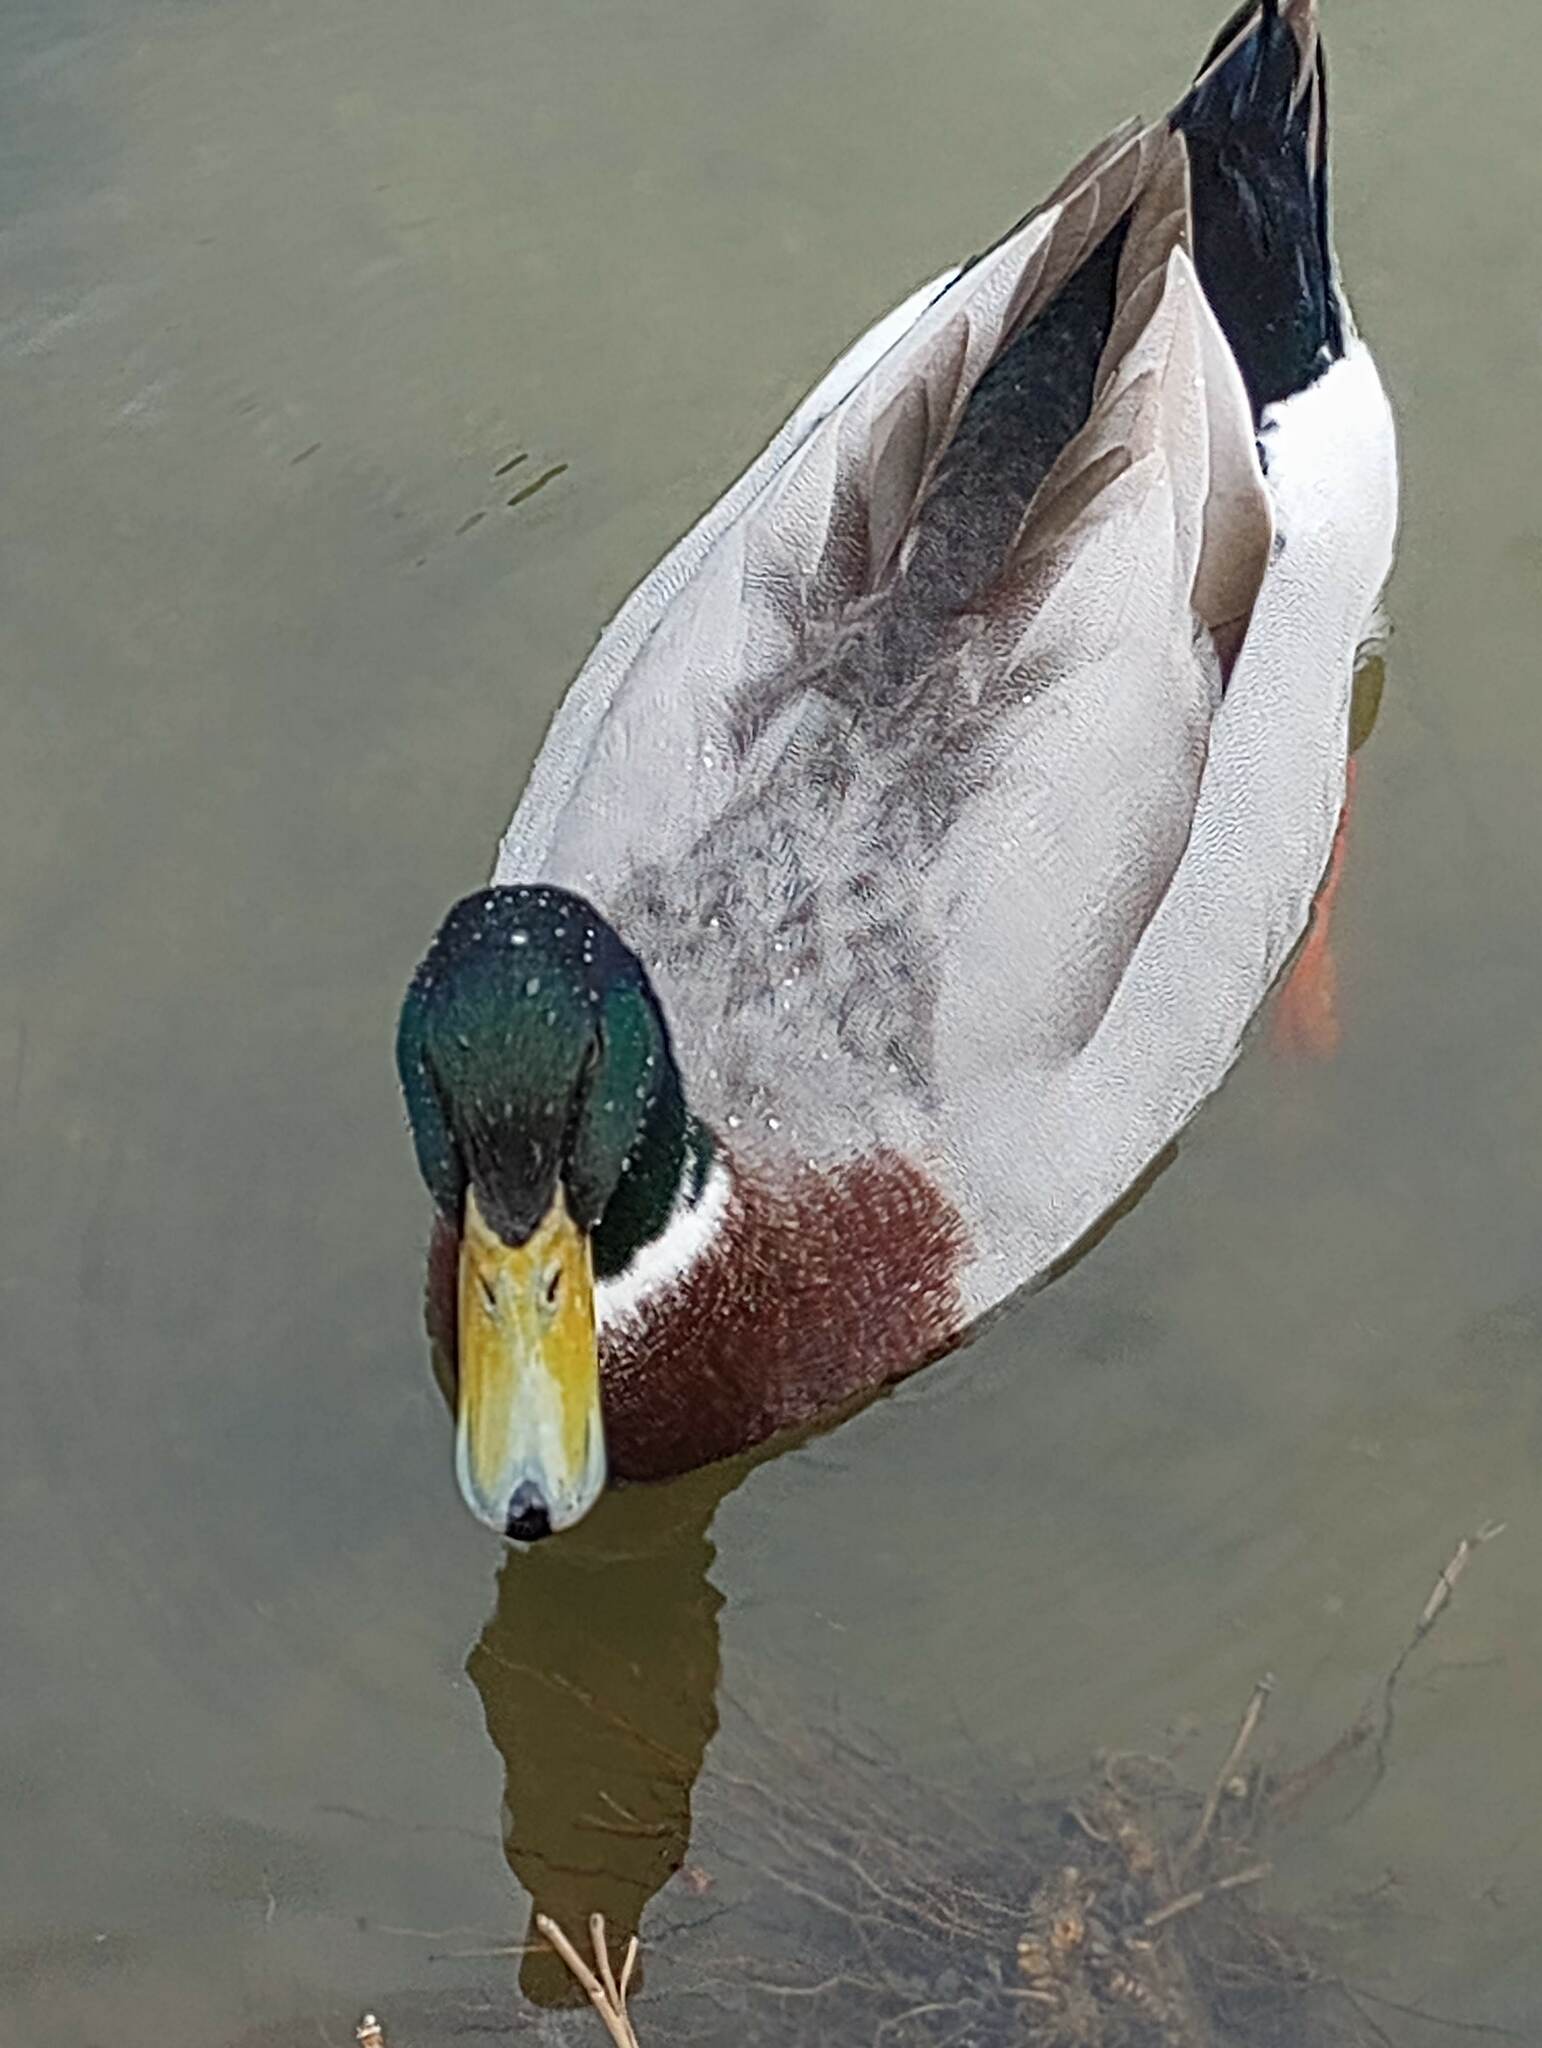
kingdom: Animalia
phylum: Chordata
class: Aves
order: Anseriformes
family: Anatidae
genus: Anas
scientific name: Anas platyrhynchos
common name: Mallard
